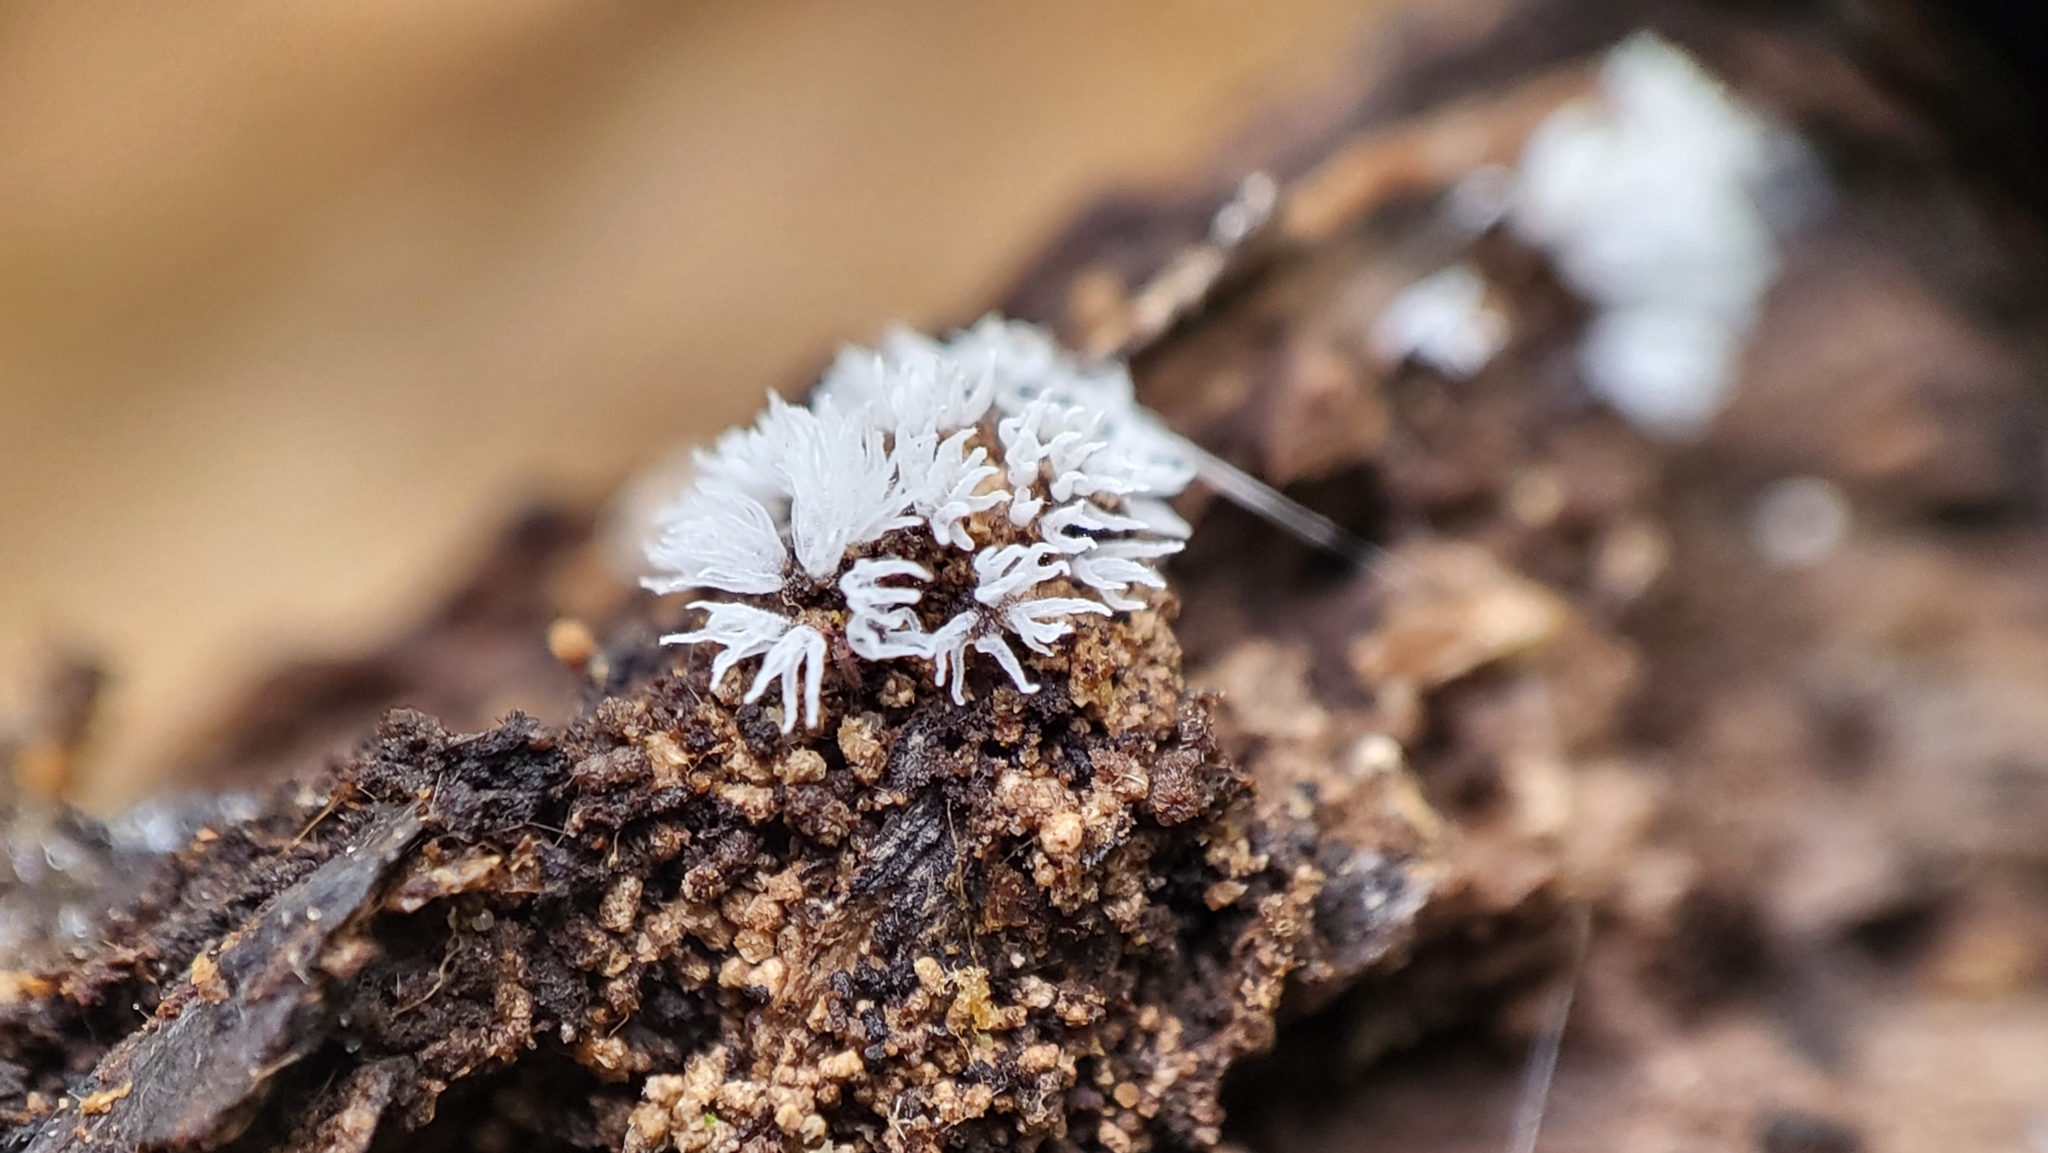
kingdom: Protozoa
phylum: Mycetozoa
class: Protosteliomycetes
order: Ceratiomyxales
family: Ceratiomyxaceae
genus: Ceratiomyxa
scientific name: Ceratiomyxa fruticulosa
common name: Honeycomb coral slime mold
